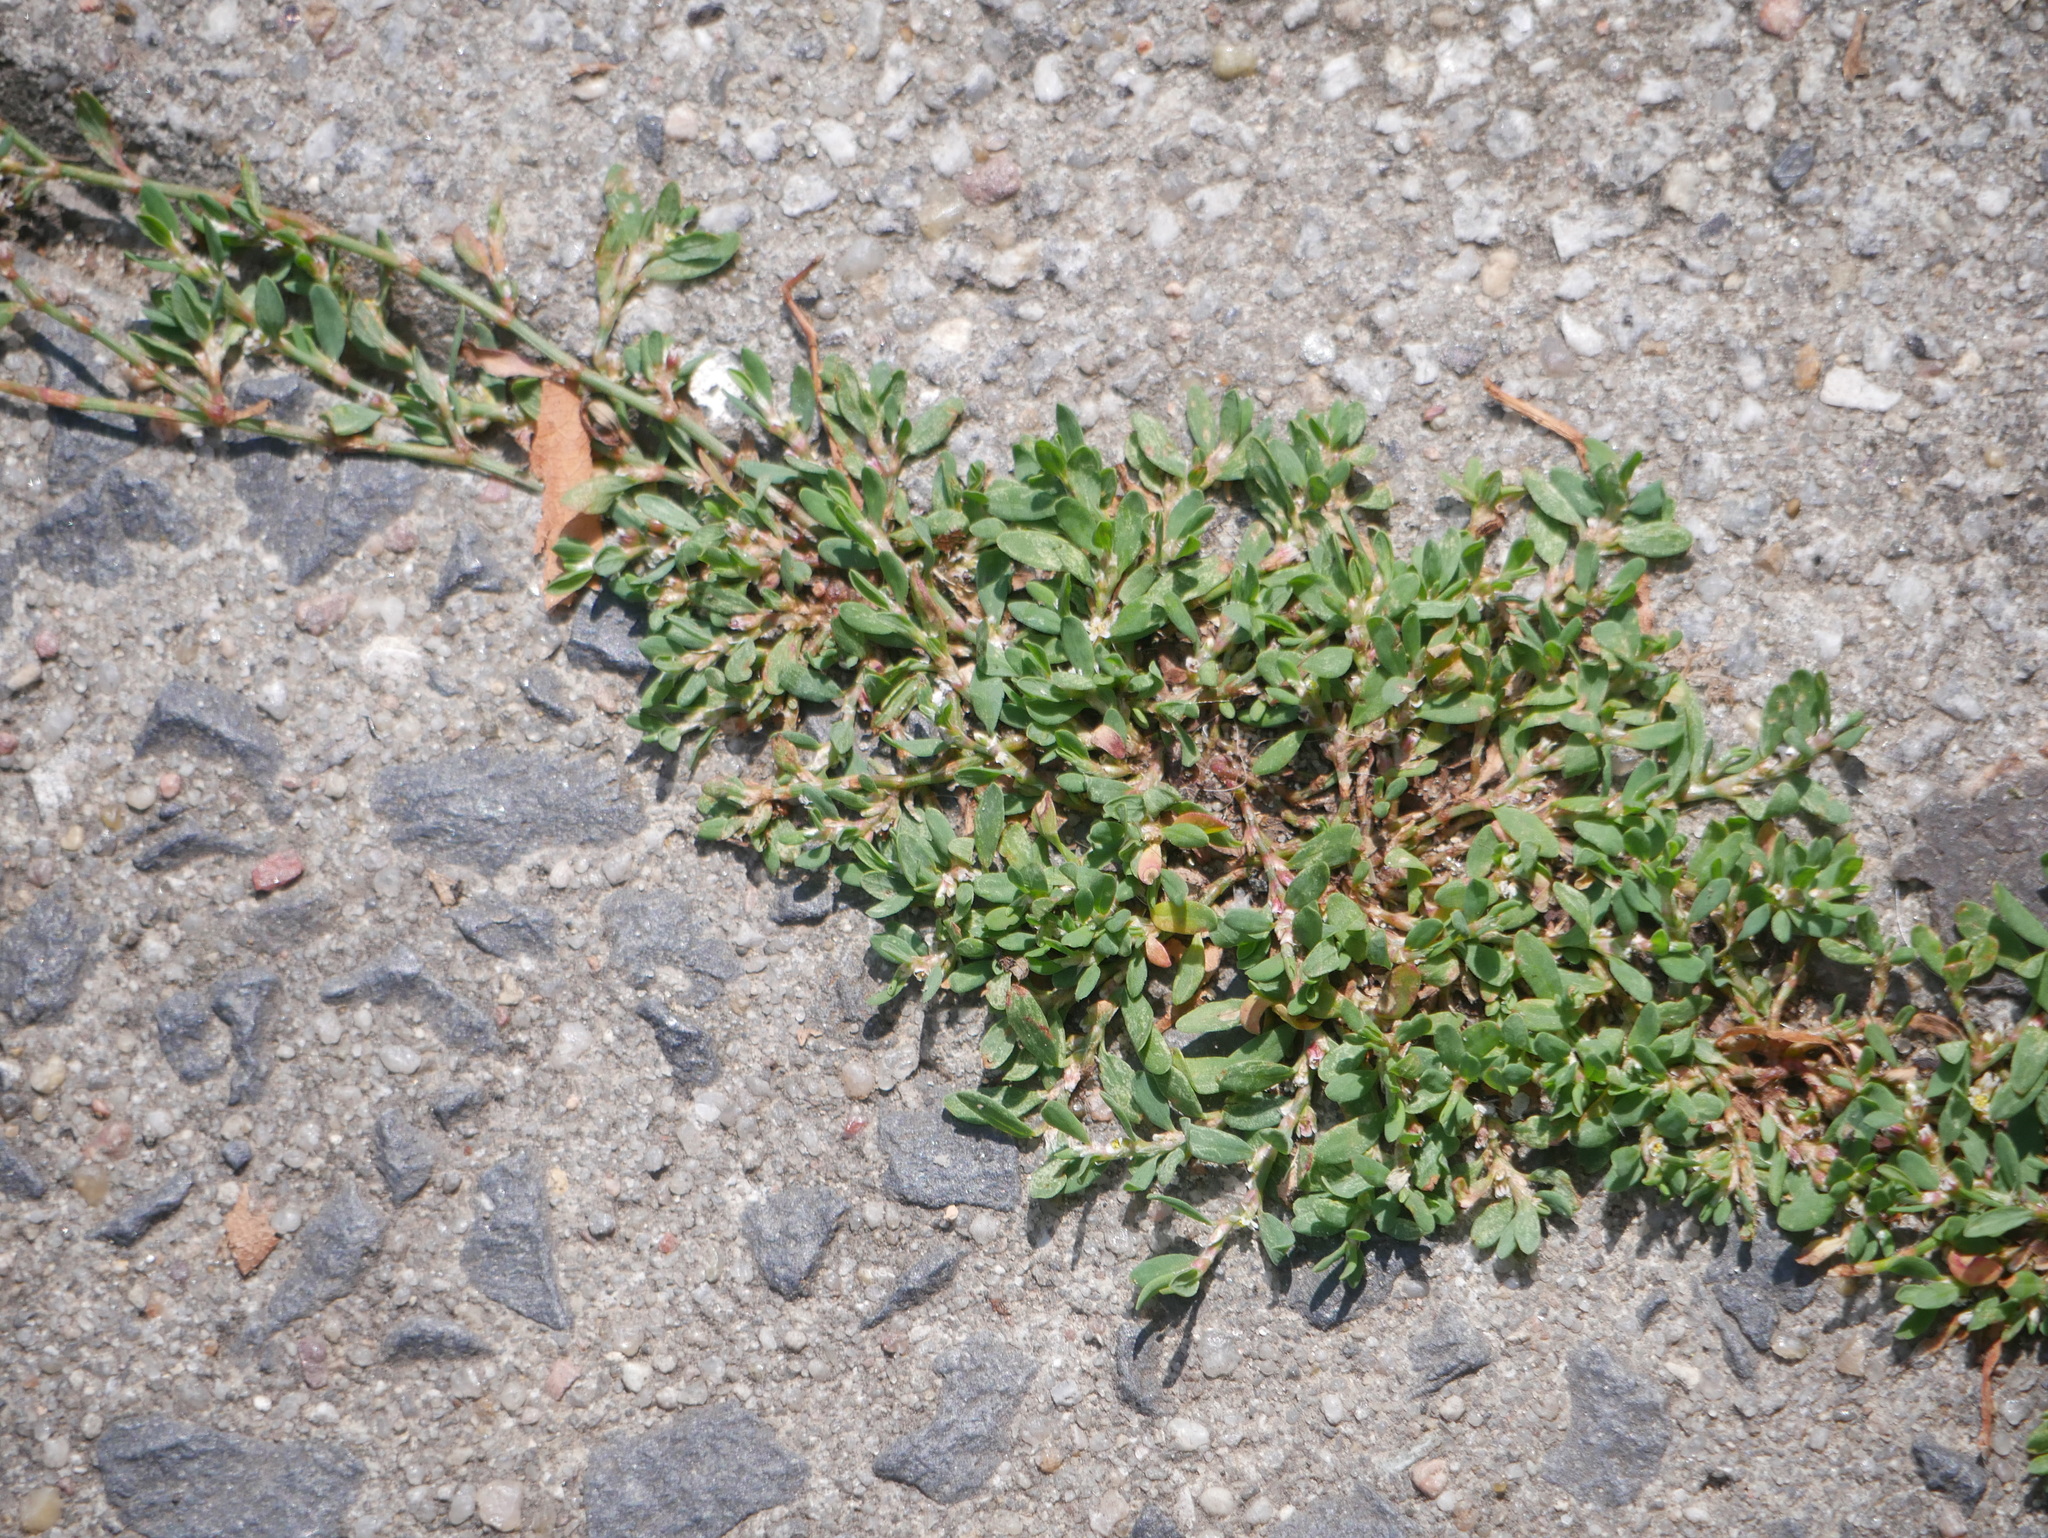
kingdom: Plantae
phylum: Tracheophyta
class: Magnoliopsida
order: Caryophyllales
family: Polygonaceae
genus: Polygonum
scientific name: Polygonum aviculare
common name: Prostrate knotweed
